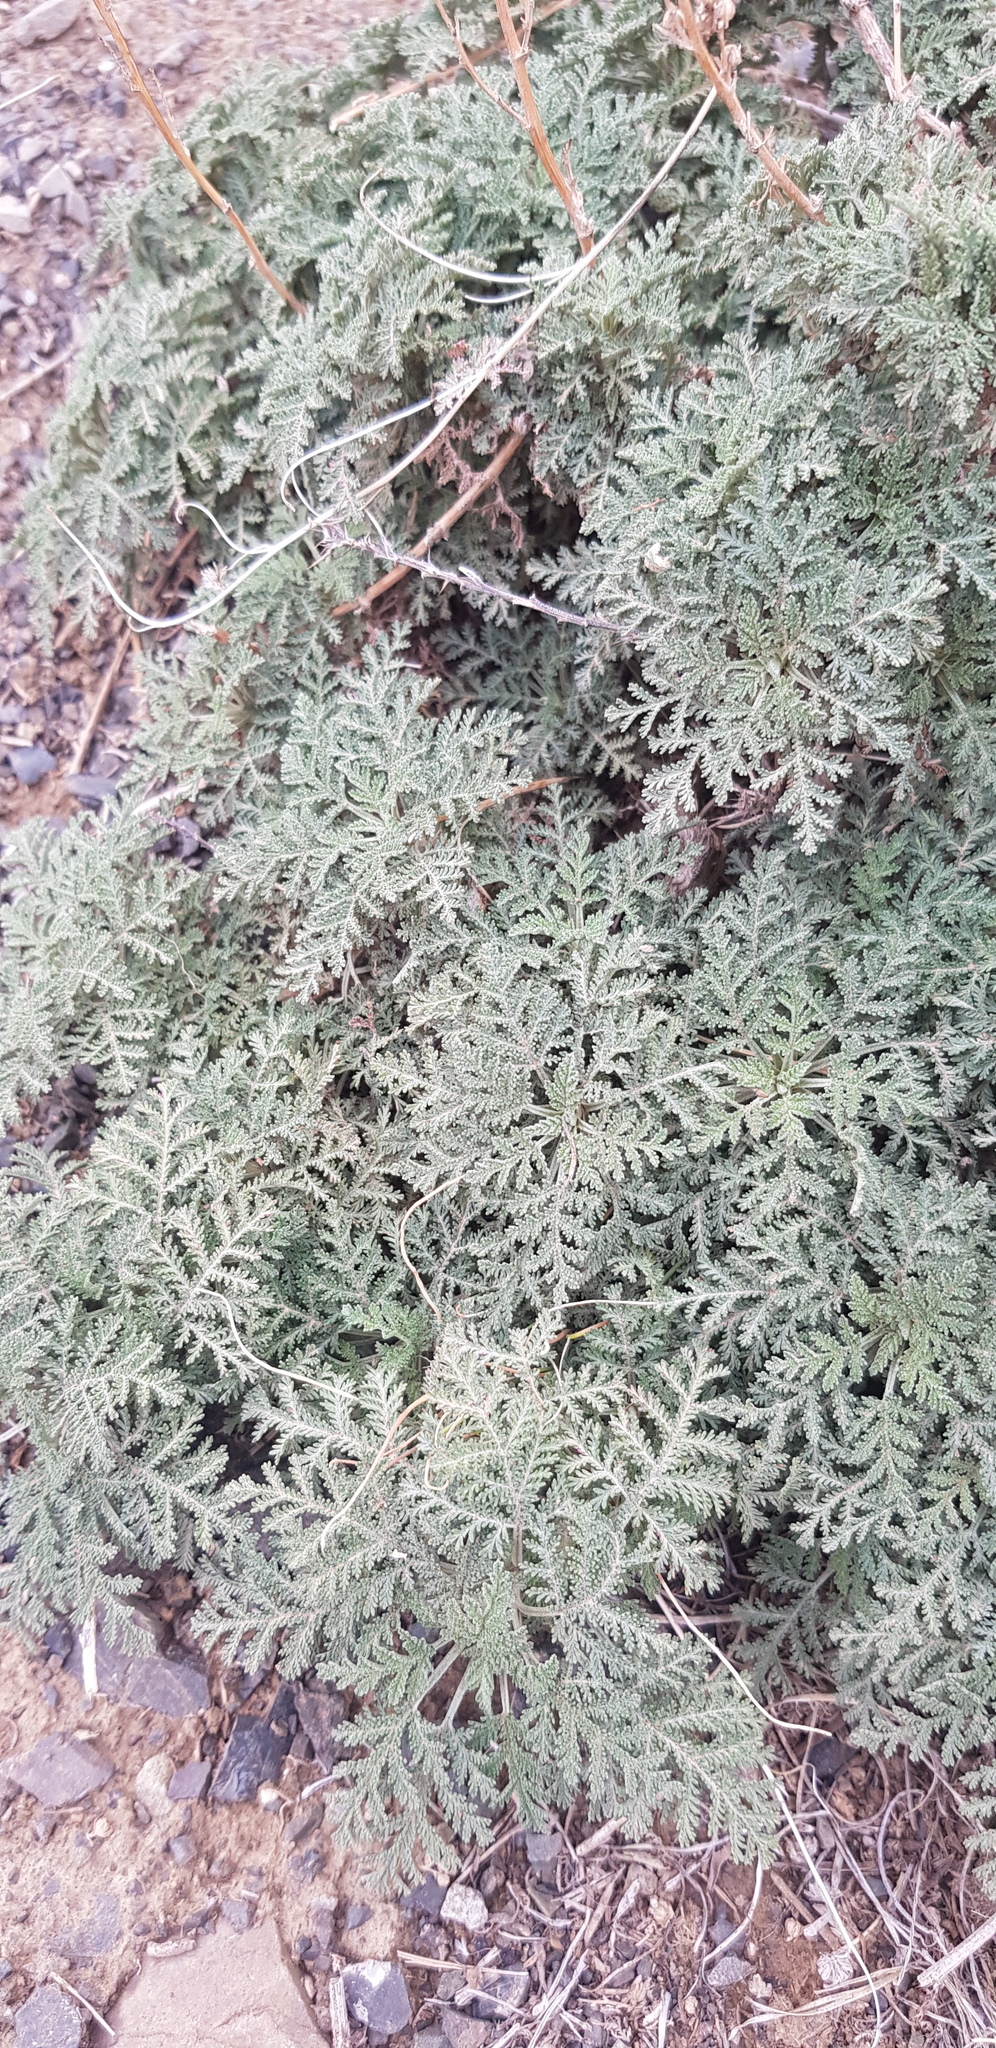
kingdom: Plantae
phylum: Tracheophyta
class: Magnoliopsida
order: Asterales
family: Asteraceae
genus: Artemisia
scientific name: Artemisia
